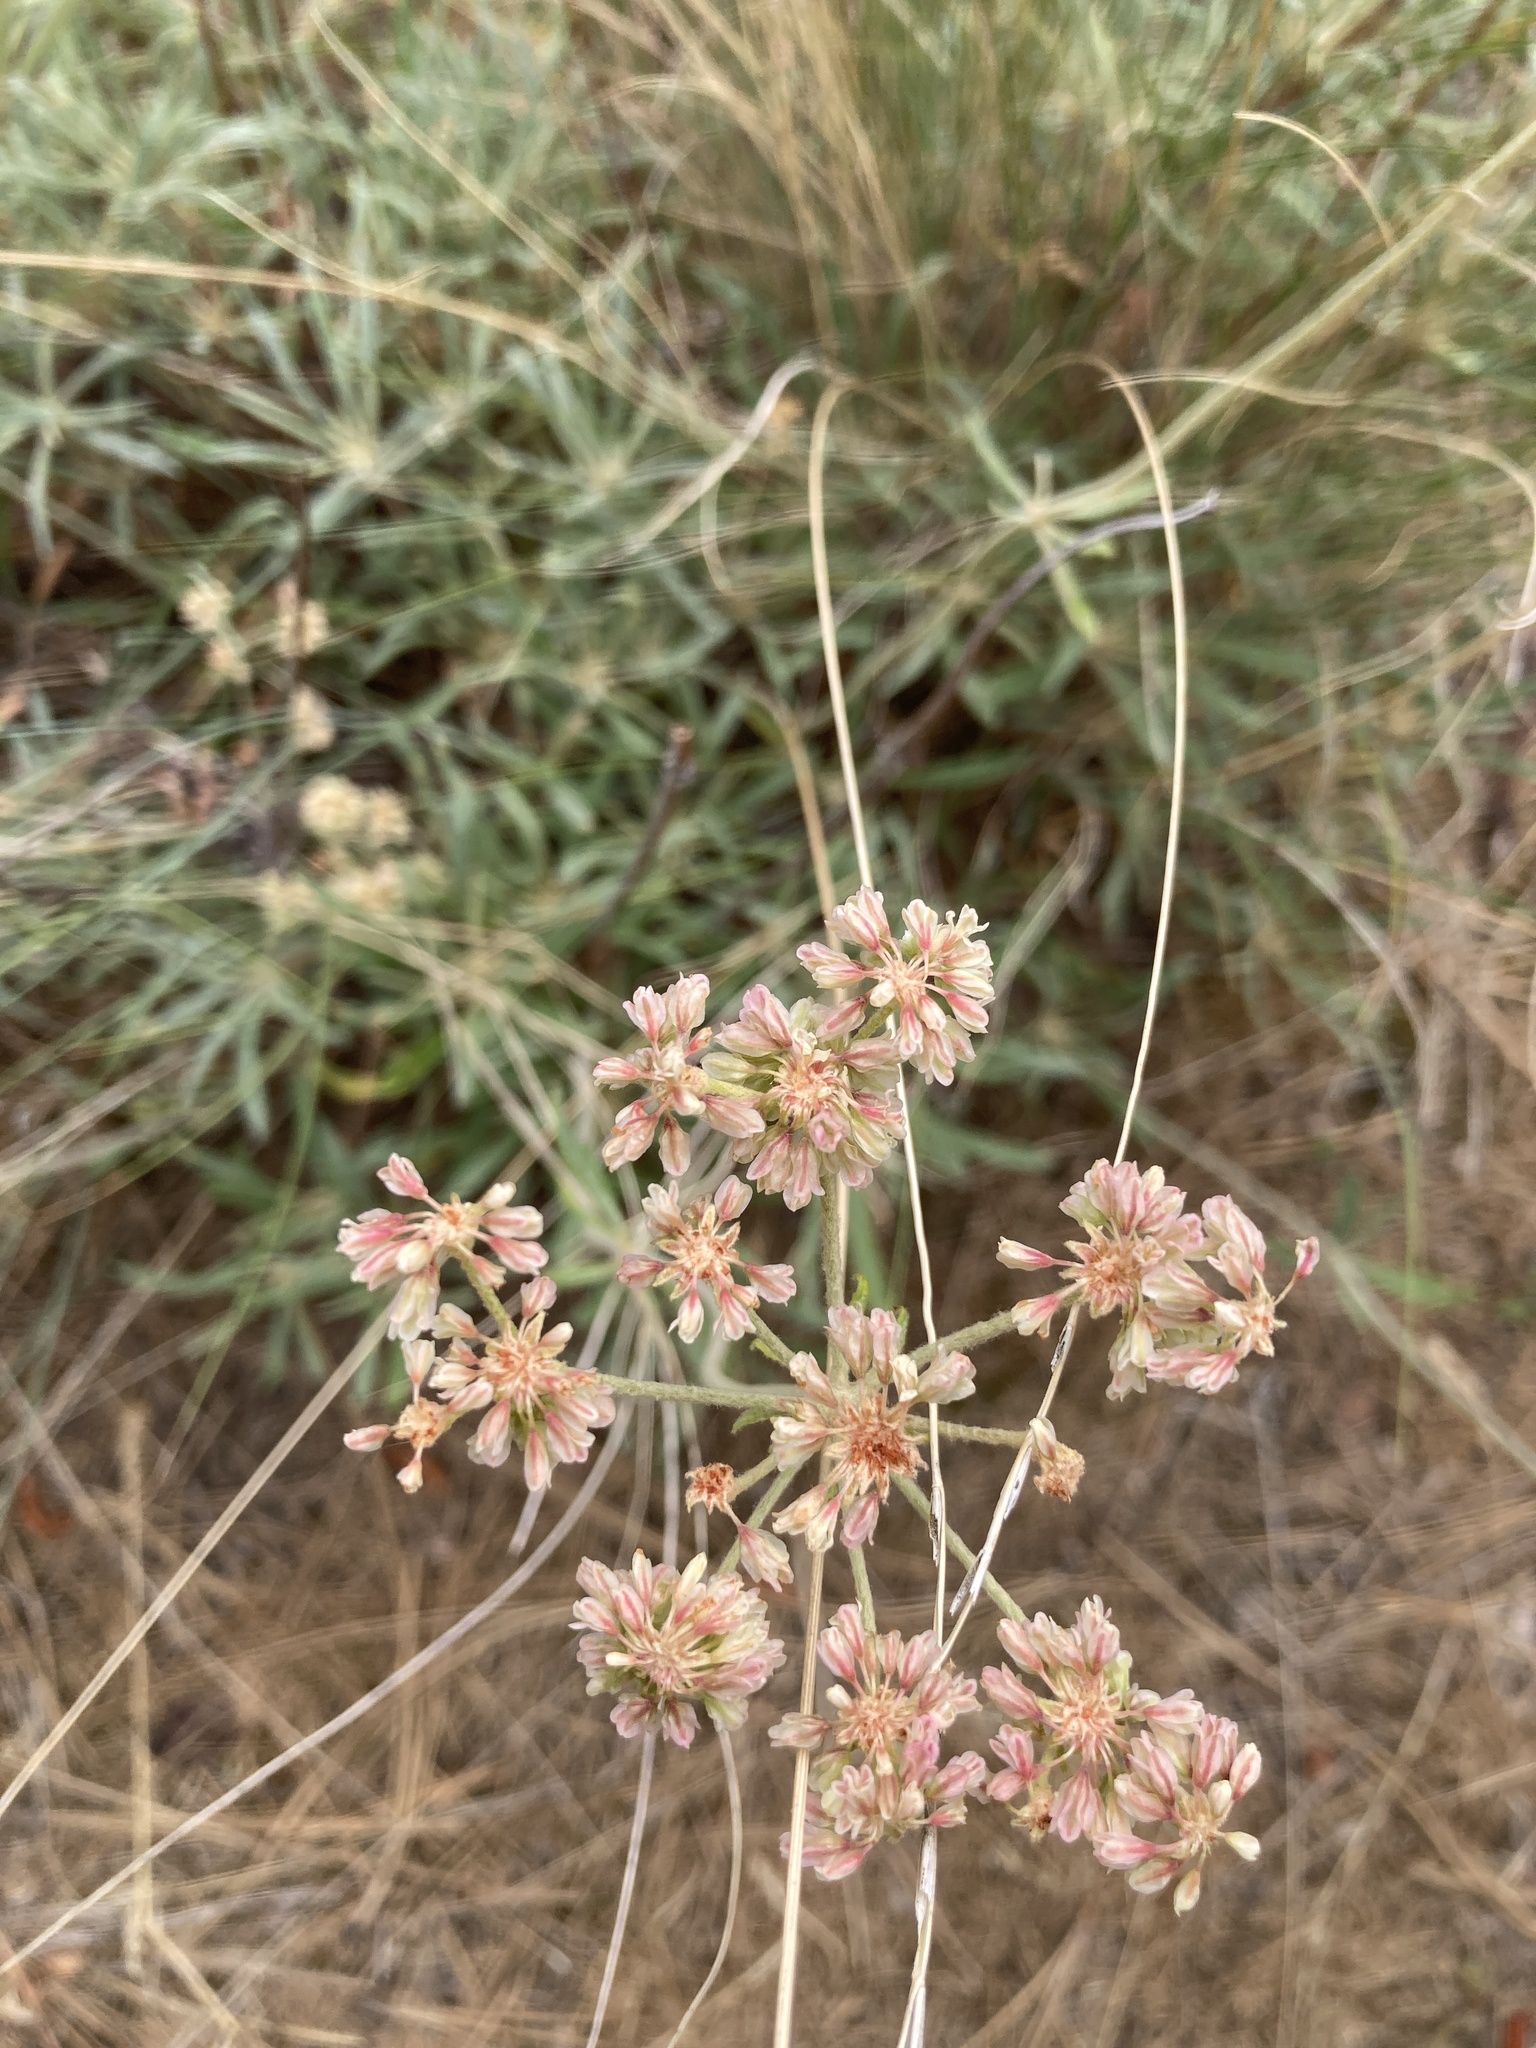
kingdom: Plantae
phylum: Tracheophyta
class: Magnoliopsida
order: Caryophyllales
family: Polygonaceae
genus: Eriogonum
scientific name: Eriogonum heracleoides
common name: Wyeth's buckwheat
